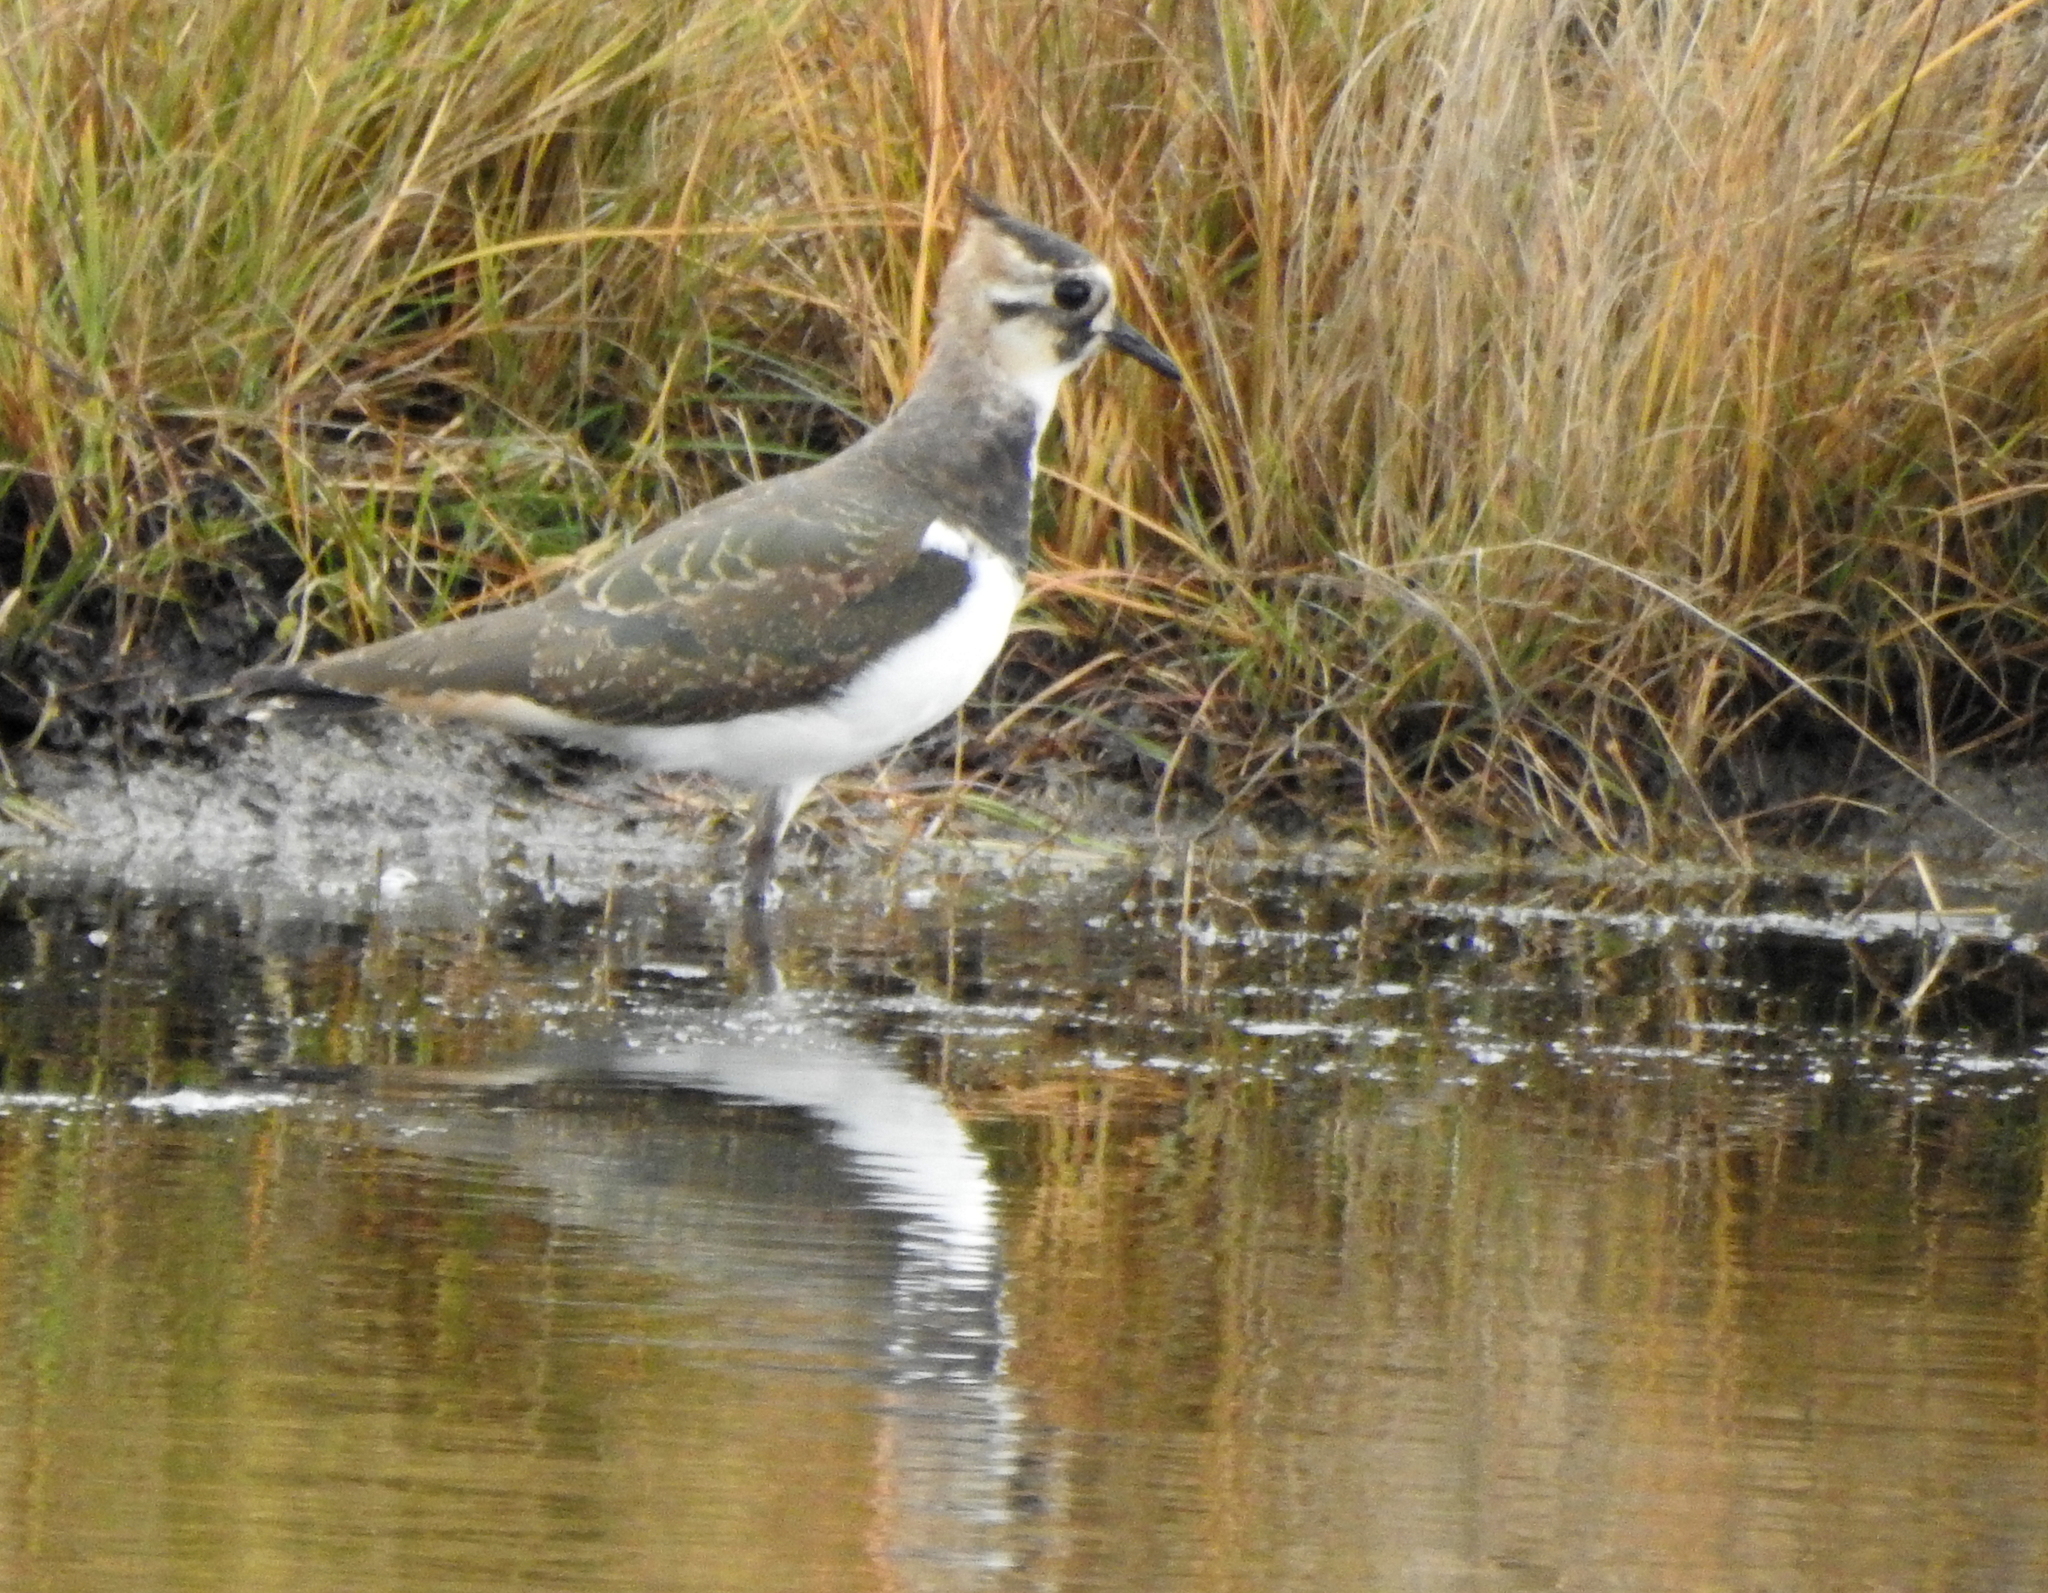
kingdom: Animalia
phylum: Chordata
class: Aves
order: Charadriiformes
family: Charadriidae
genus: Vanellus
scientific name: Vanellus vanellus
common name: Northern lapwing
